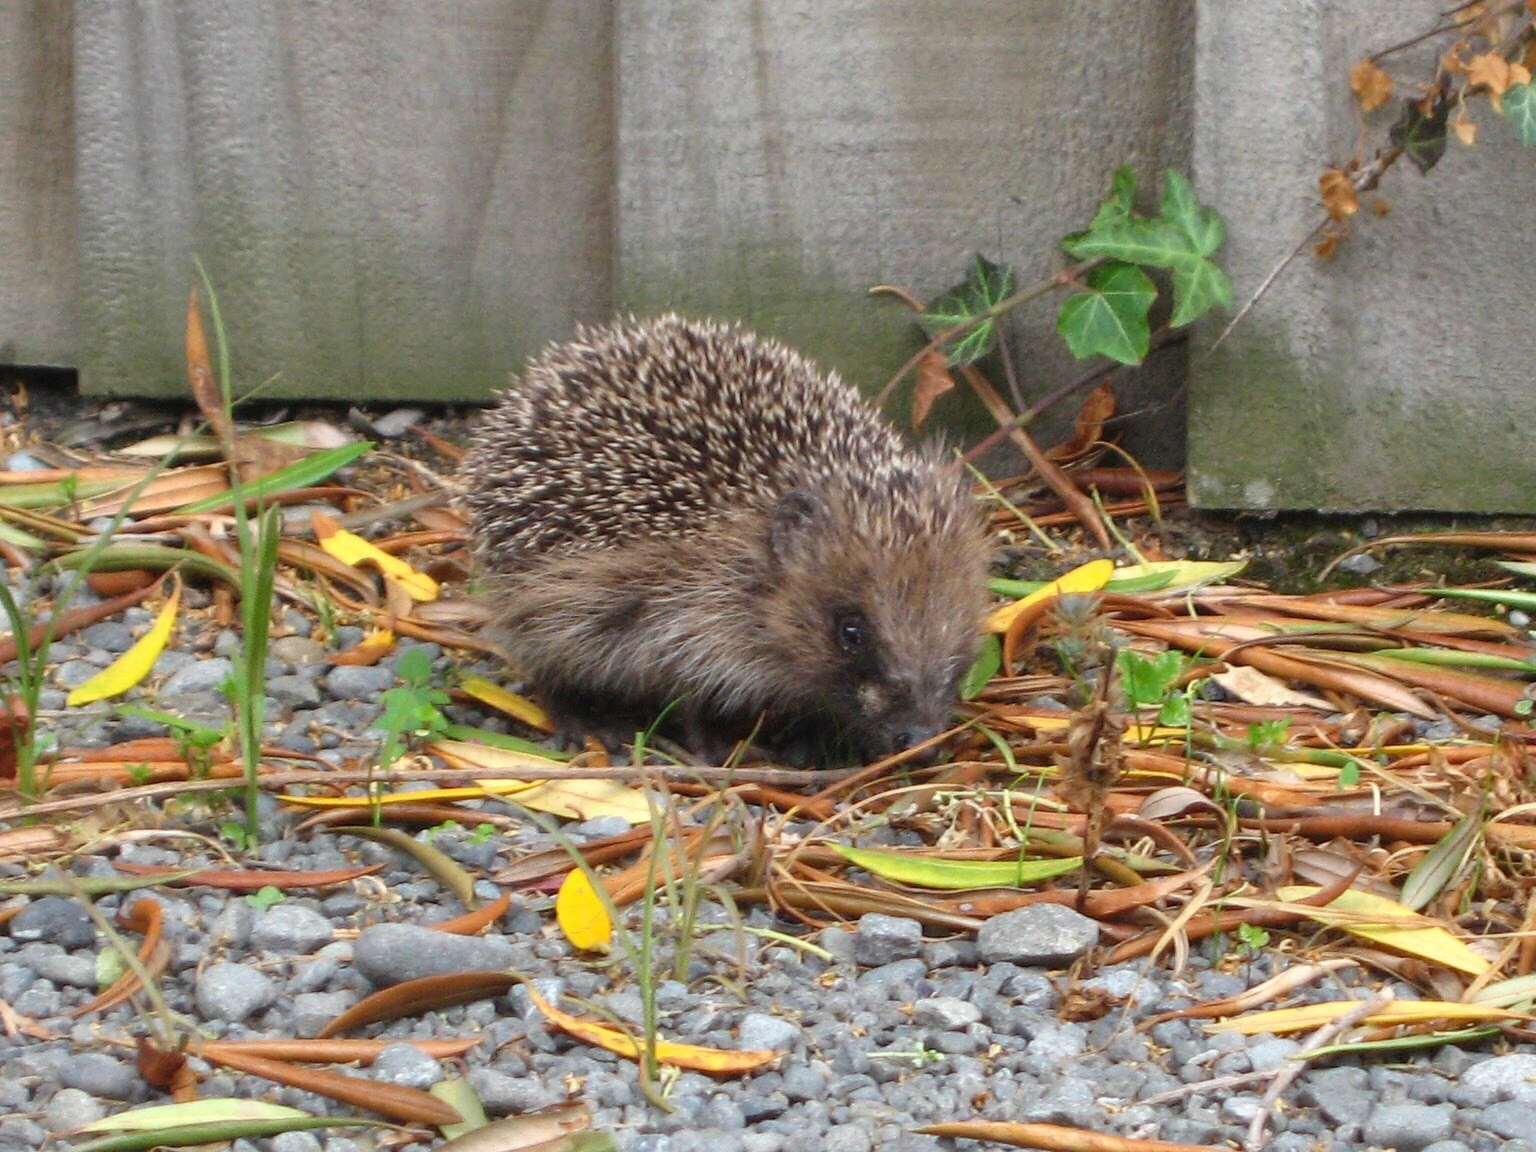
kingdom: Animalia
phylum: Chordata
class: Mammalia
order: Erinaceomorpha
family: Erinaceidae
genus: Erinaceus
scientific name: Erinaceus europaeus
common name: West european hedgehog
